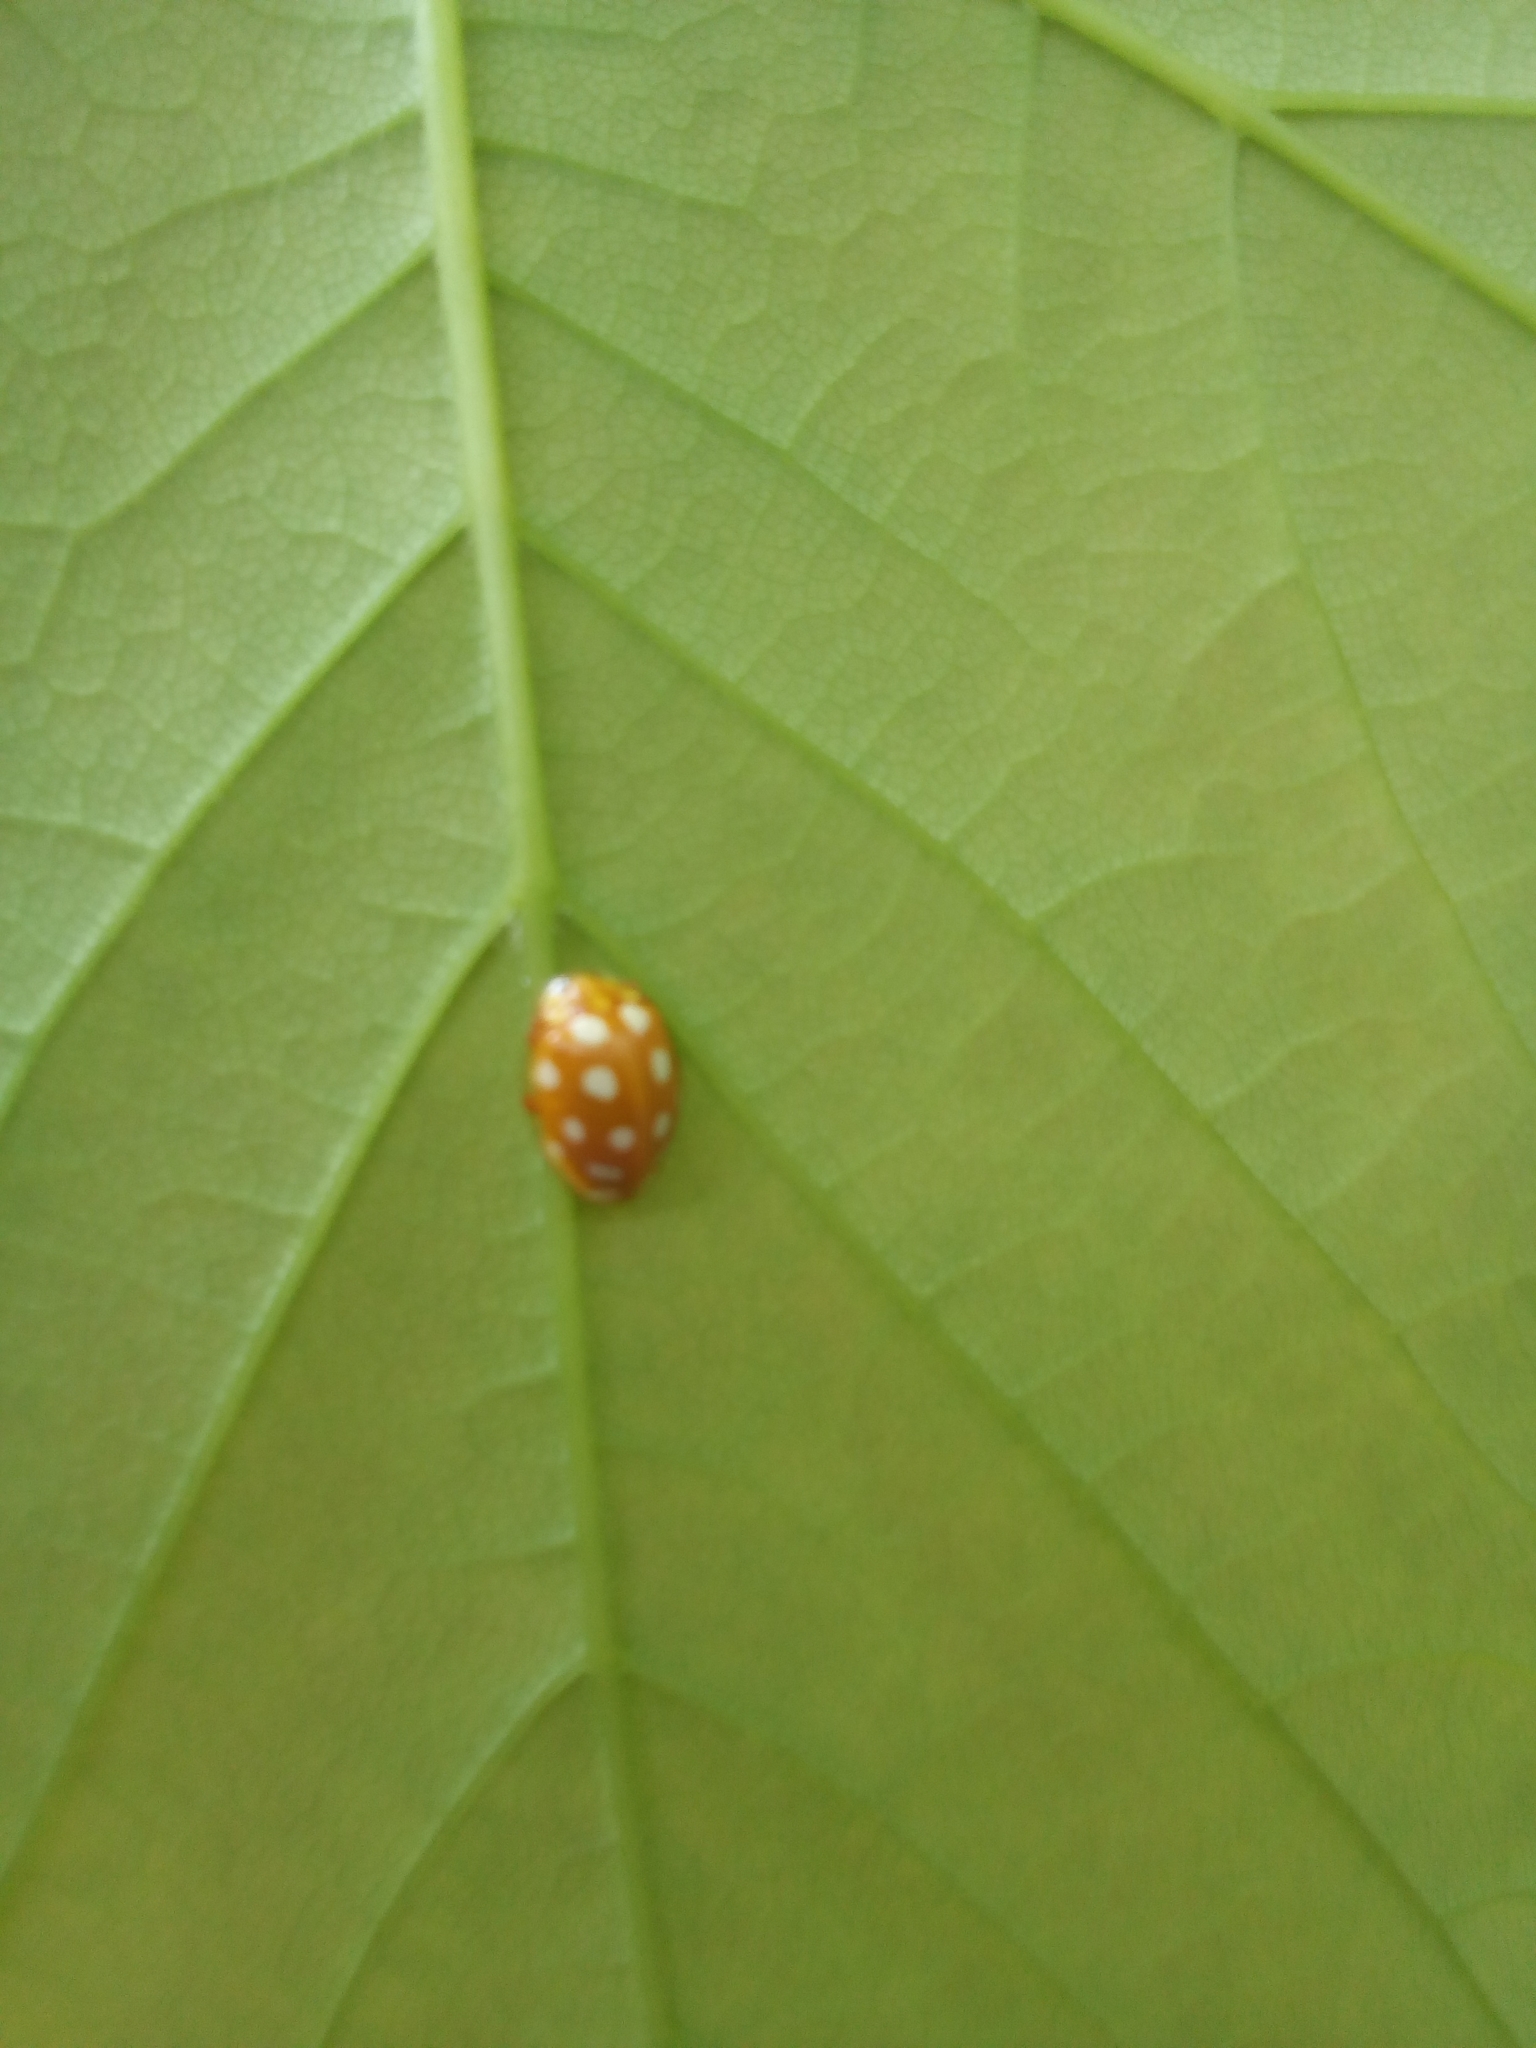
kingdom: Animalia
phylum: Arthropoda
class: Insecta
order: Coleoptera
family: Coccinellidae
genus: Halyzia
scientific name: Halyzia sedecimguttata
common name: Orange ladybird
